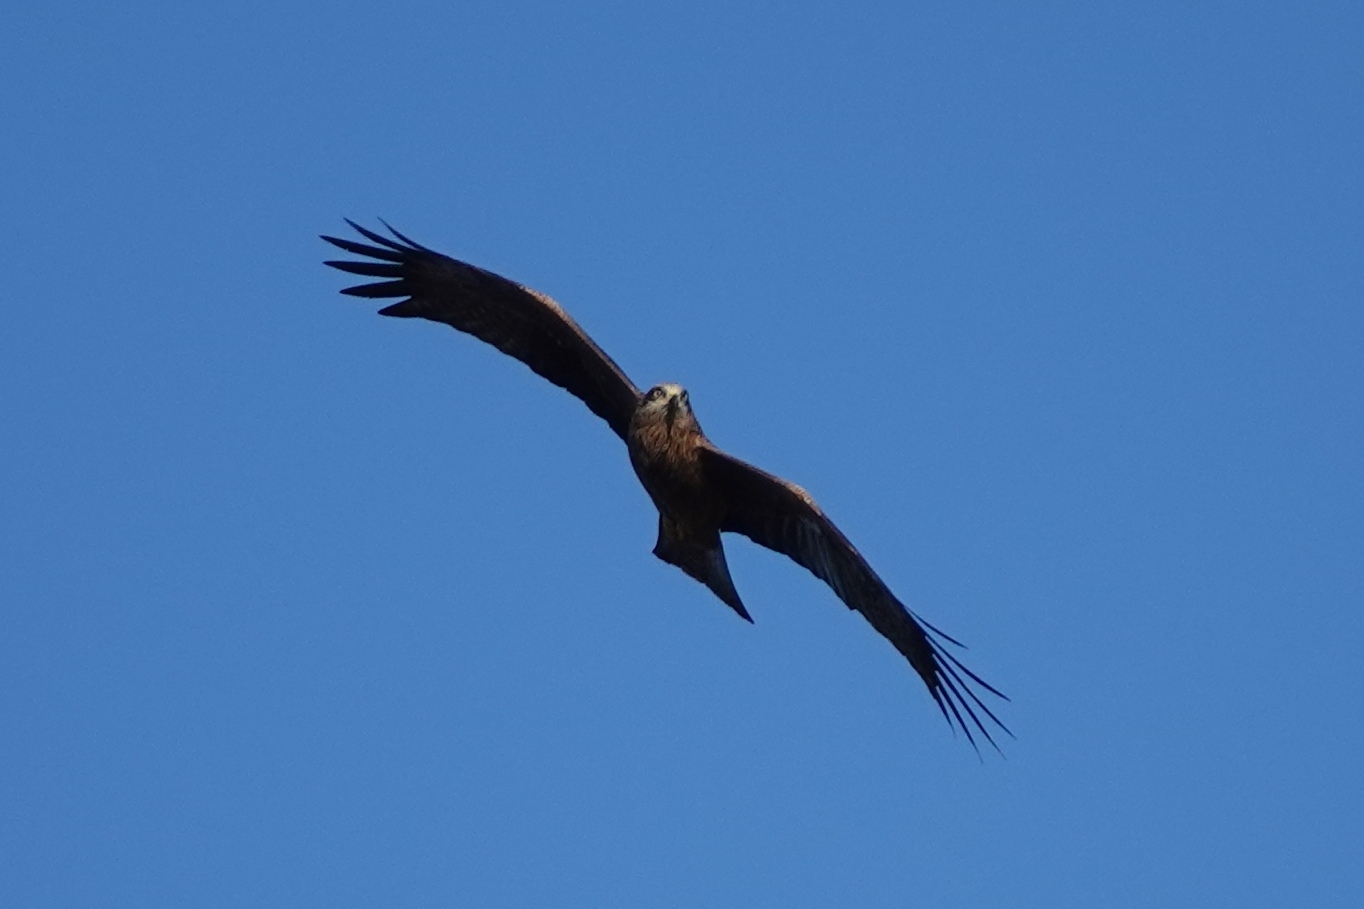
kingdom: Animalia
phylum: Chordata
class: Aves
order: Accipitriformes
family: Accipitridae
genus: Milvus
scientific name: Milvus migrans
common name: Black kite
